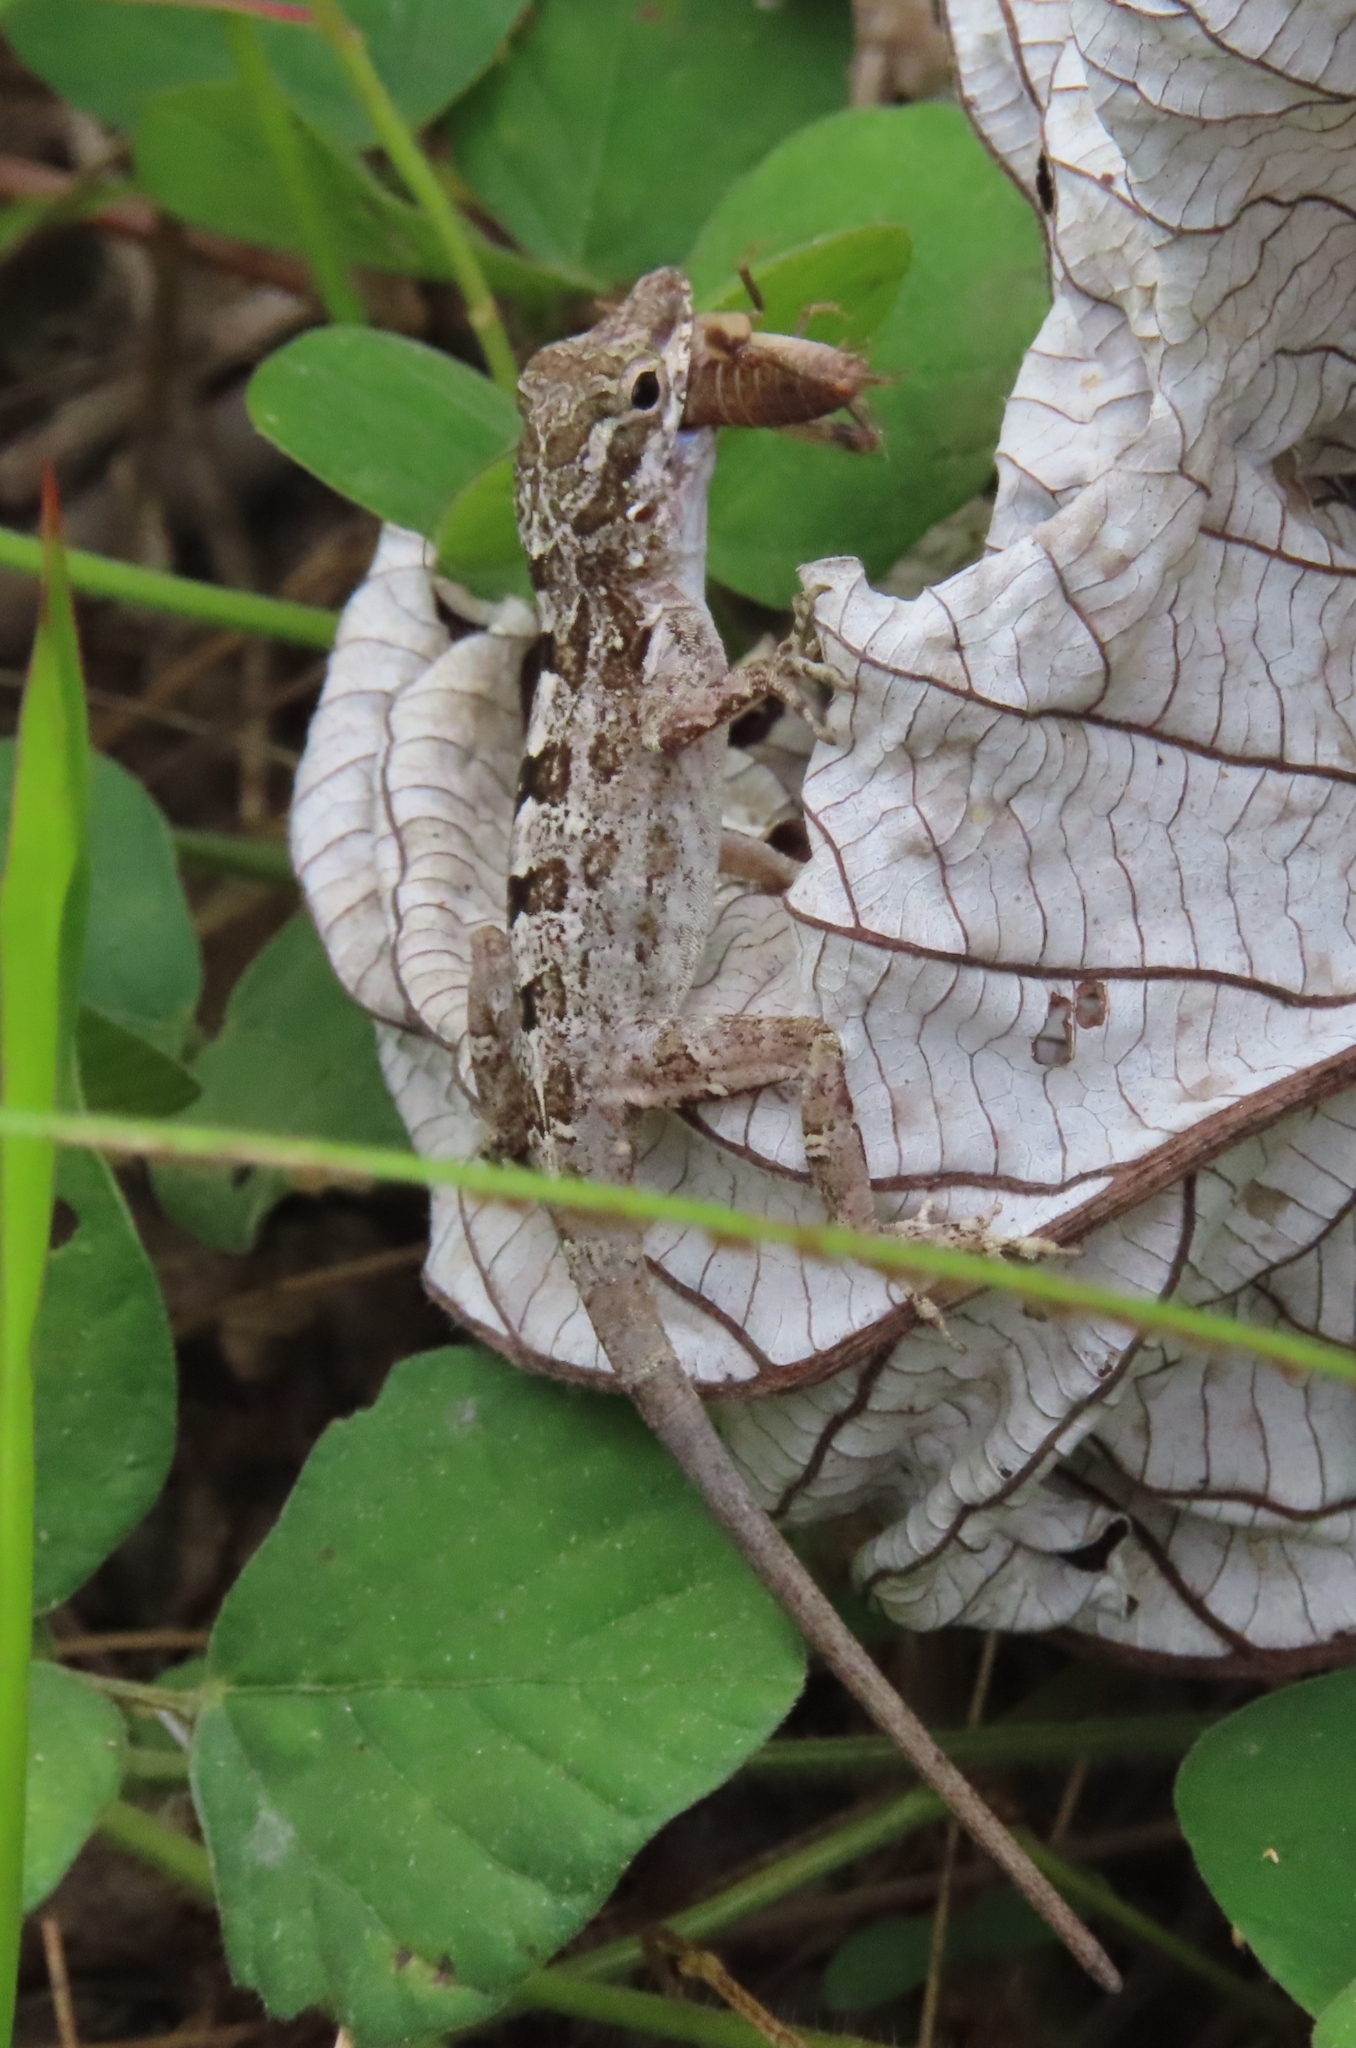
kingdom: Animalia
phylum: Chordata
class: Squamata
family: Dactyloidae
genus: Anolis
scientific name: Anolis cristatellus
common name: Crested anole
